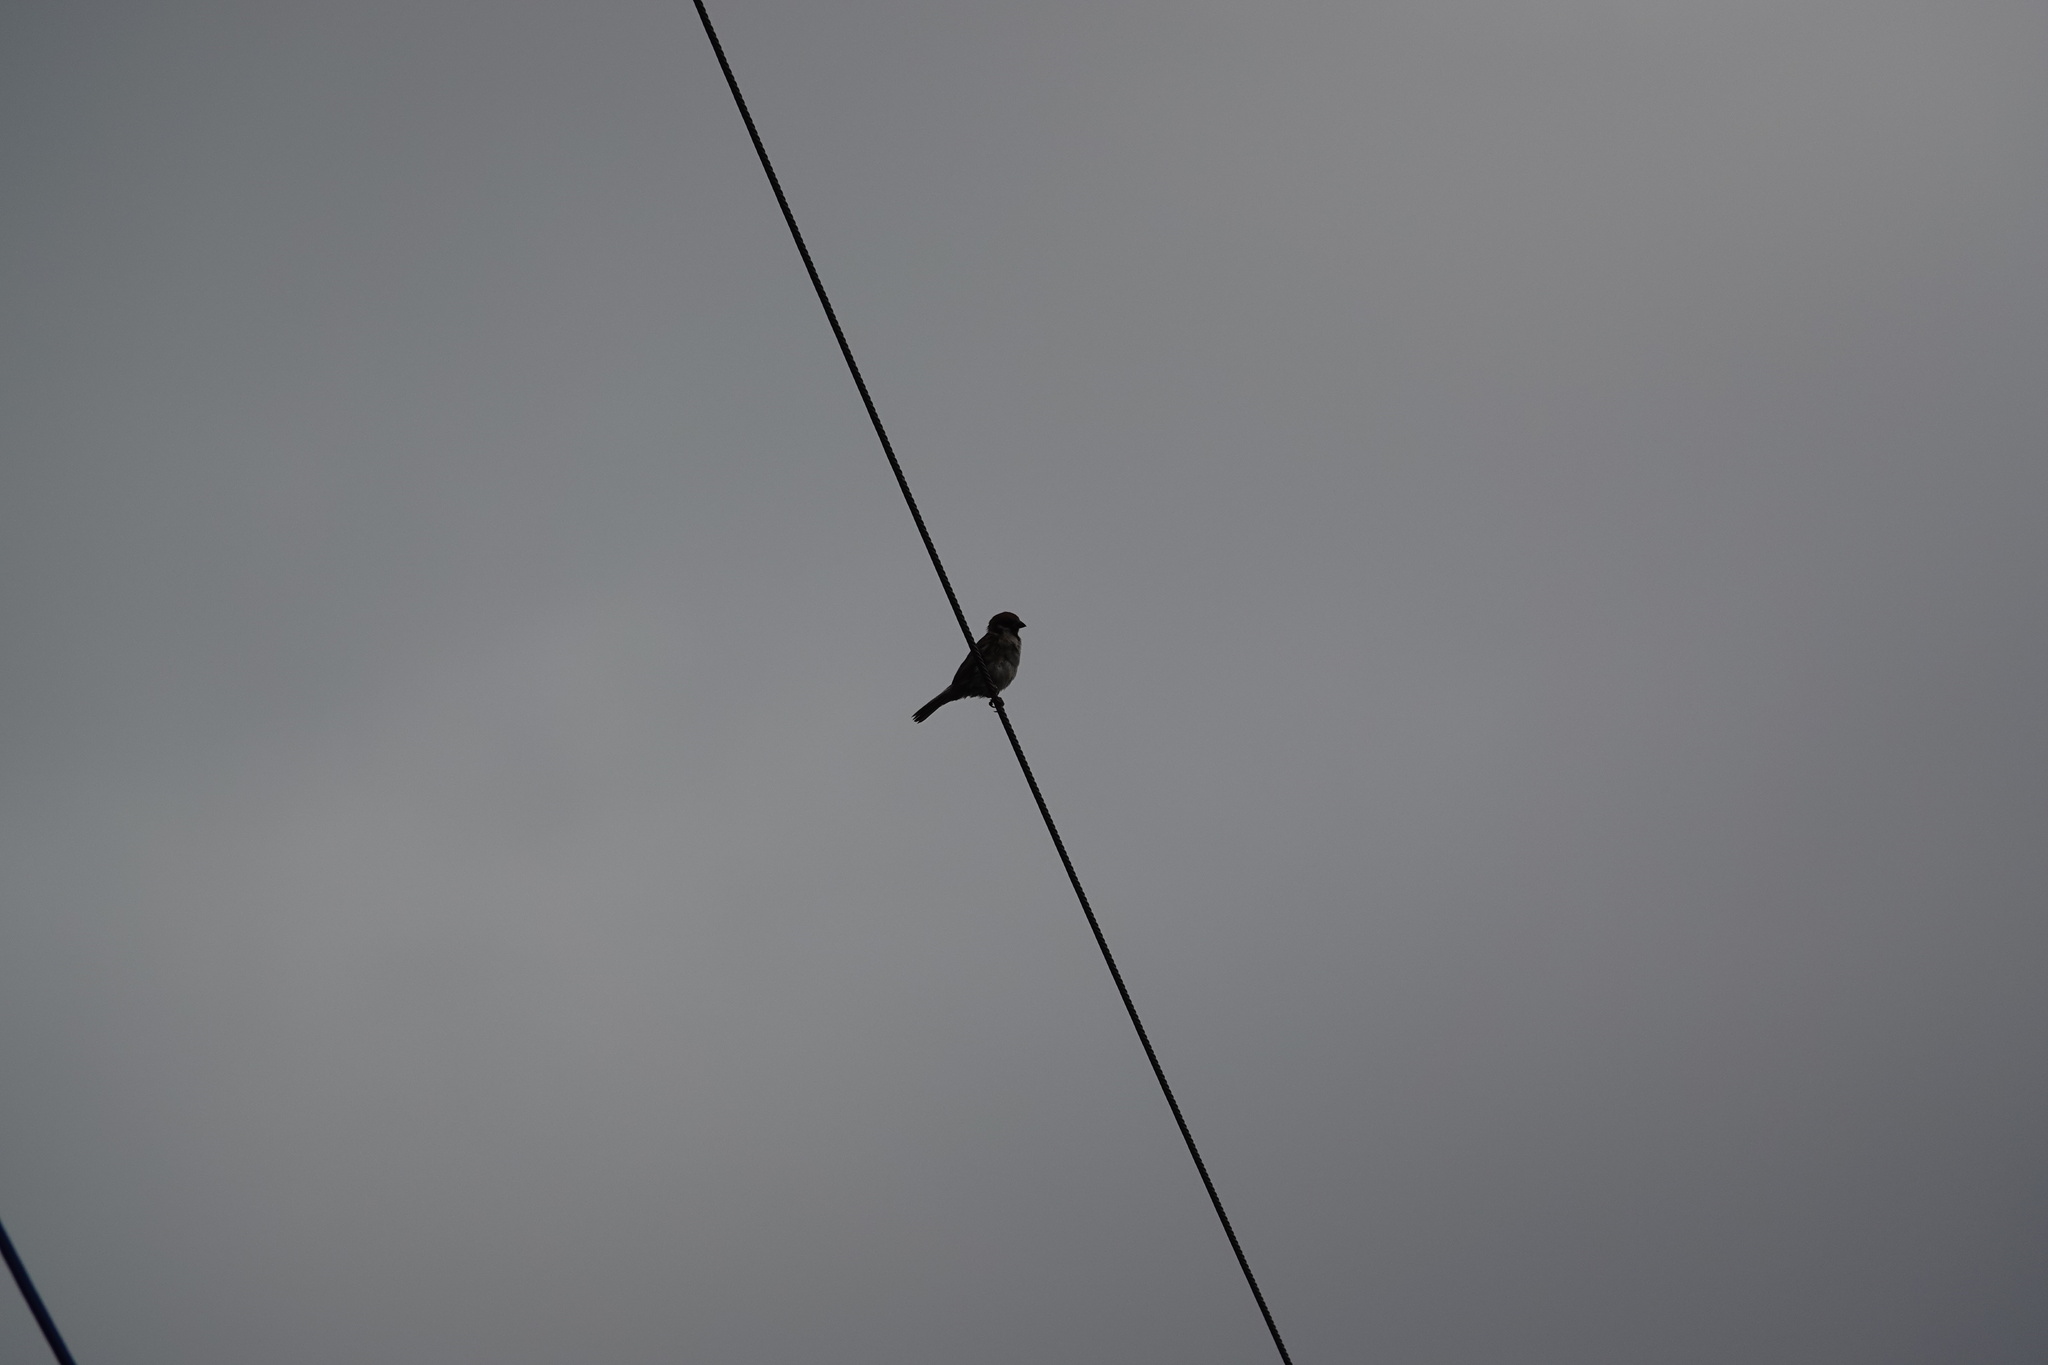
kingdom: Animalia
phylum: Chordata
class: Aves
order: Passeriformes
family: Passeridae
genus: Passer
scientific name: Passer montanus
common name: Eurasian tree sparrow
